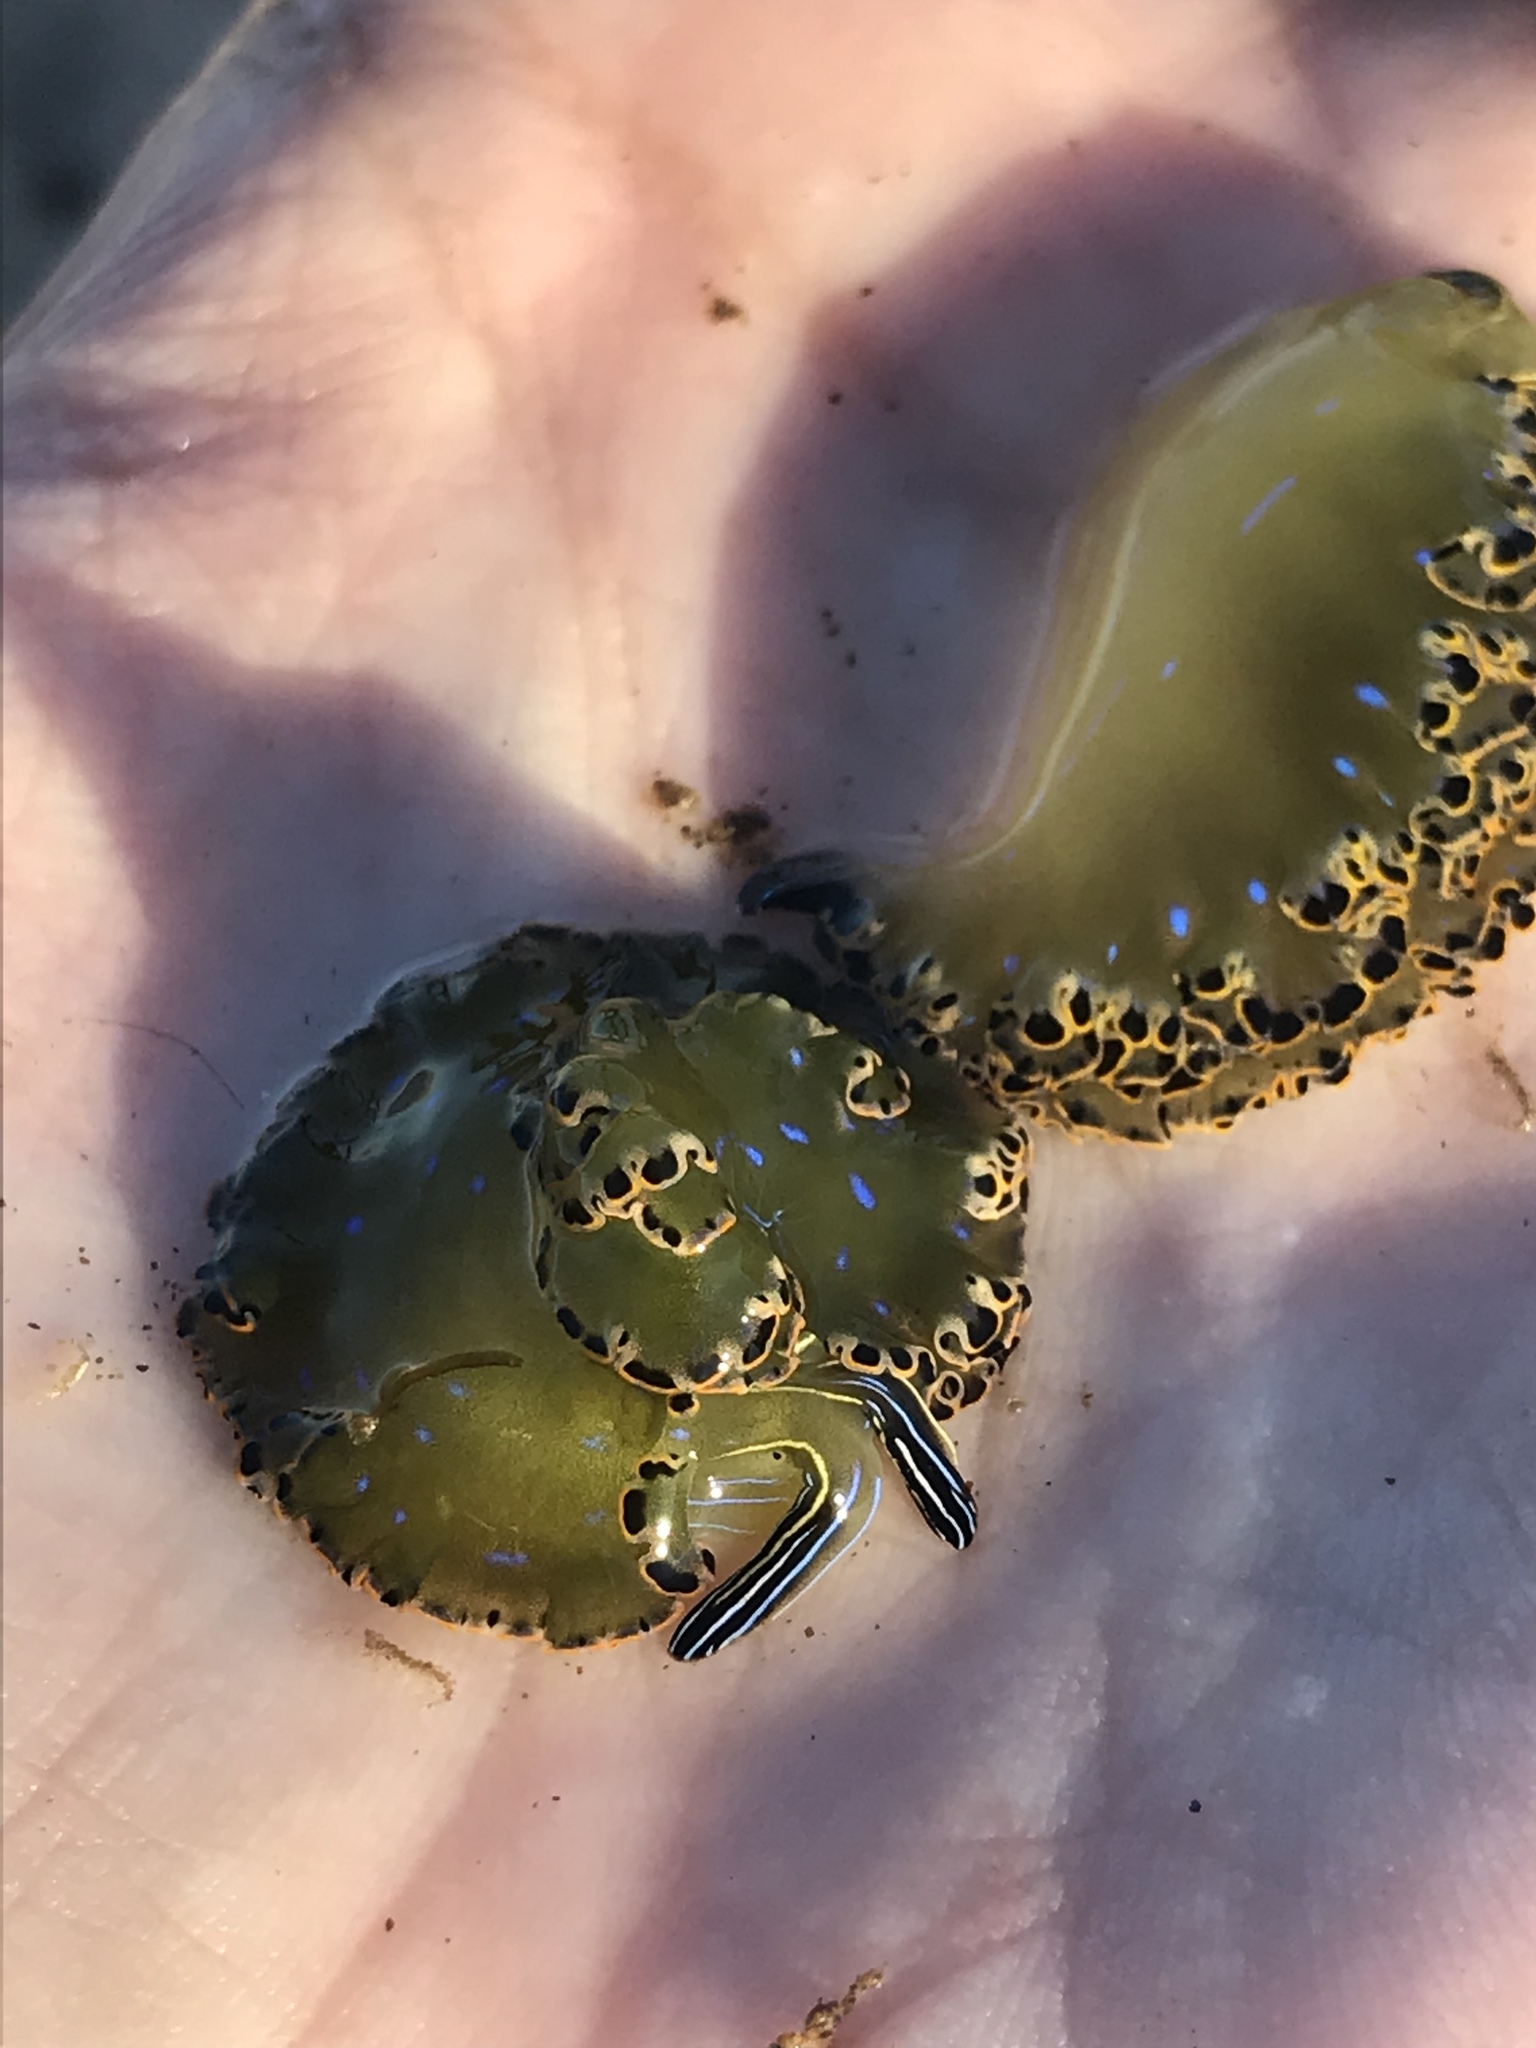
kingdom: Animalia
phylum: Mollusca
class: Gastropoda
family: Plakobranchidae
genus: Elysia
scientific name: Elysia diomedea
